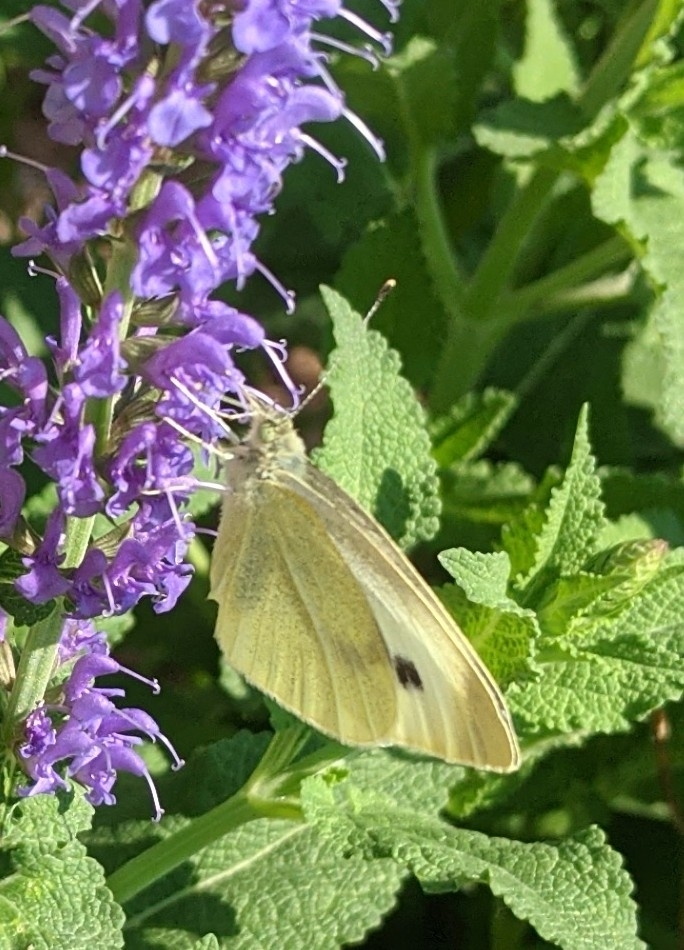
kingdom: Animalia
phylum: Arthropoda
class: Insecta
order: Lepidoptera
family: Pieridae
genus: Pieris
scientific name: Pieris rapae
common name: Small white
